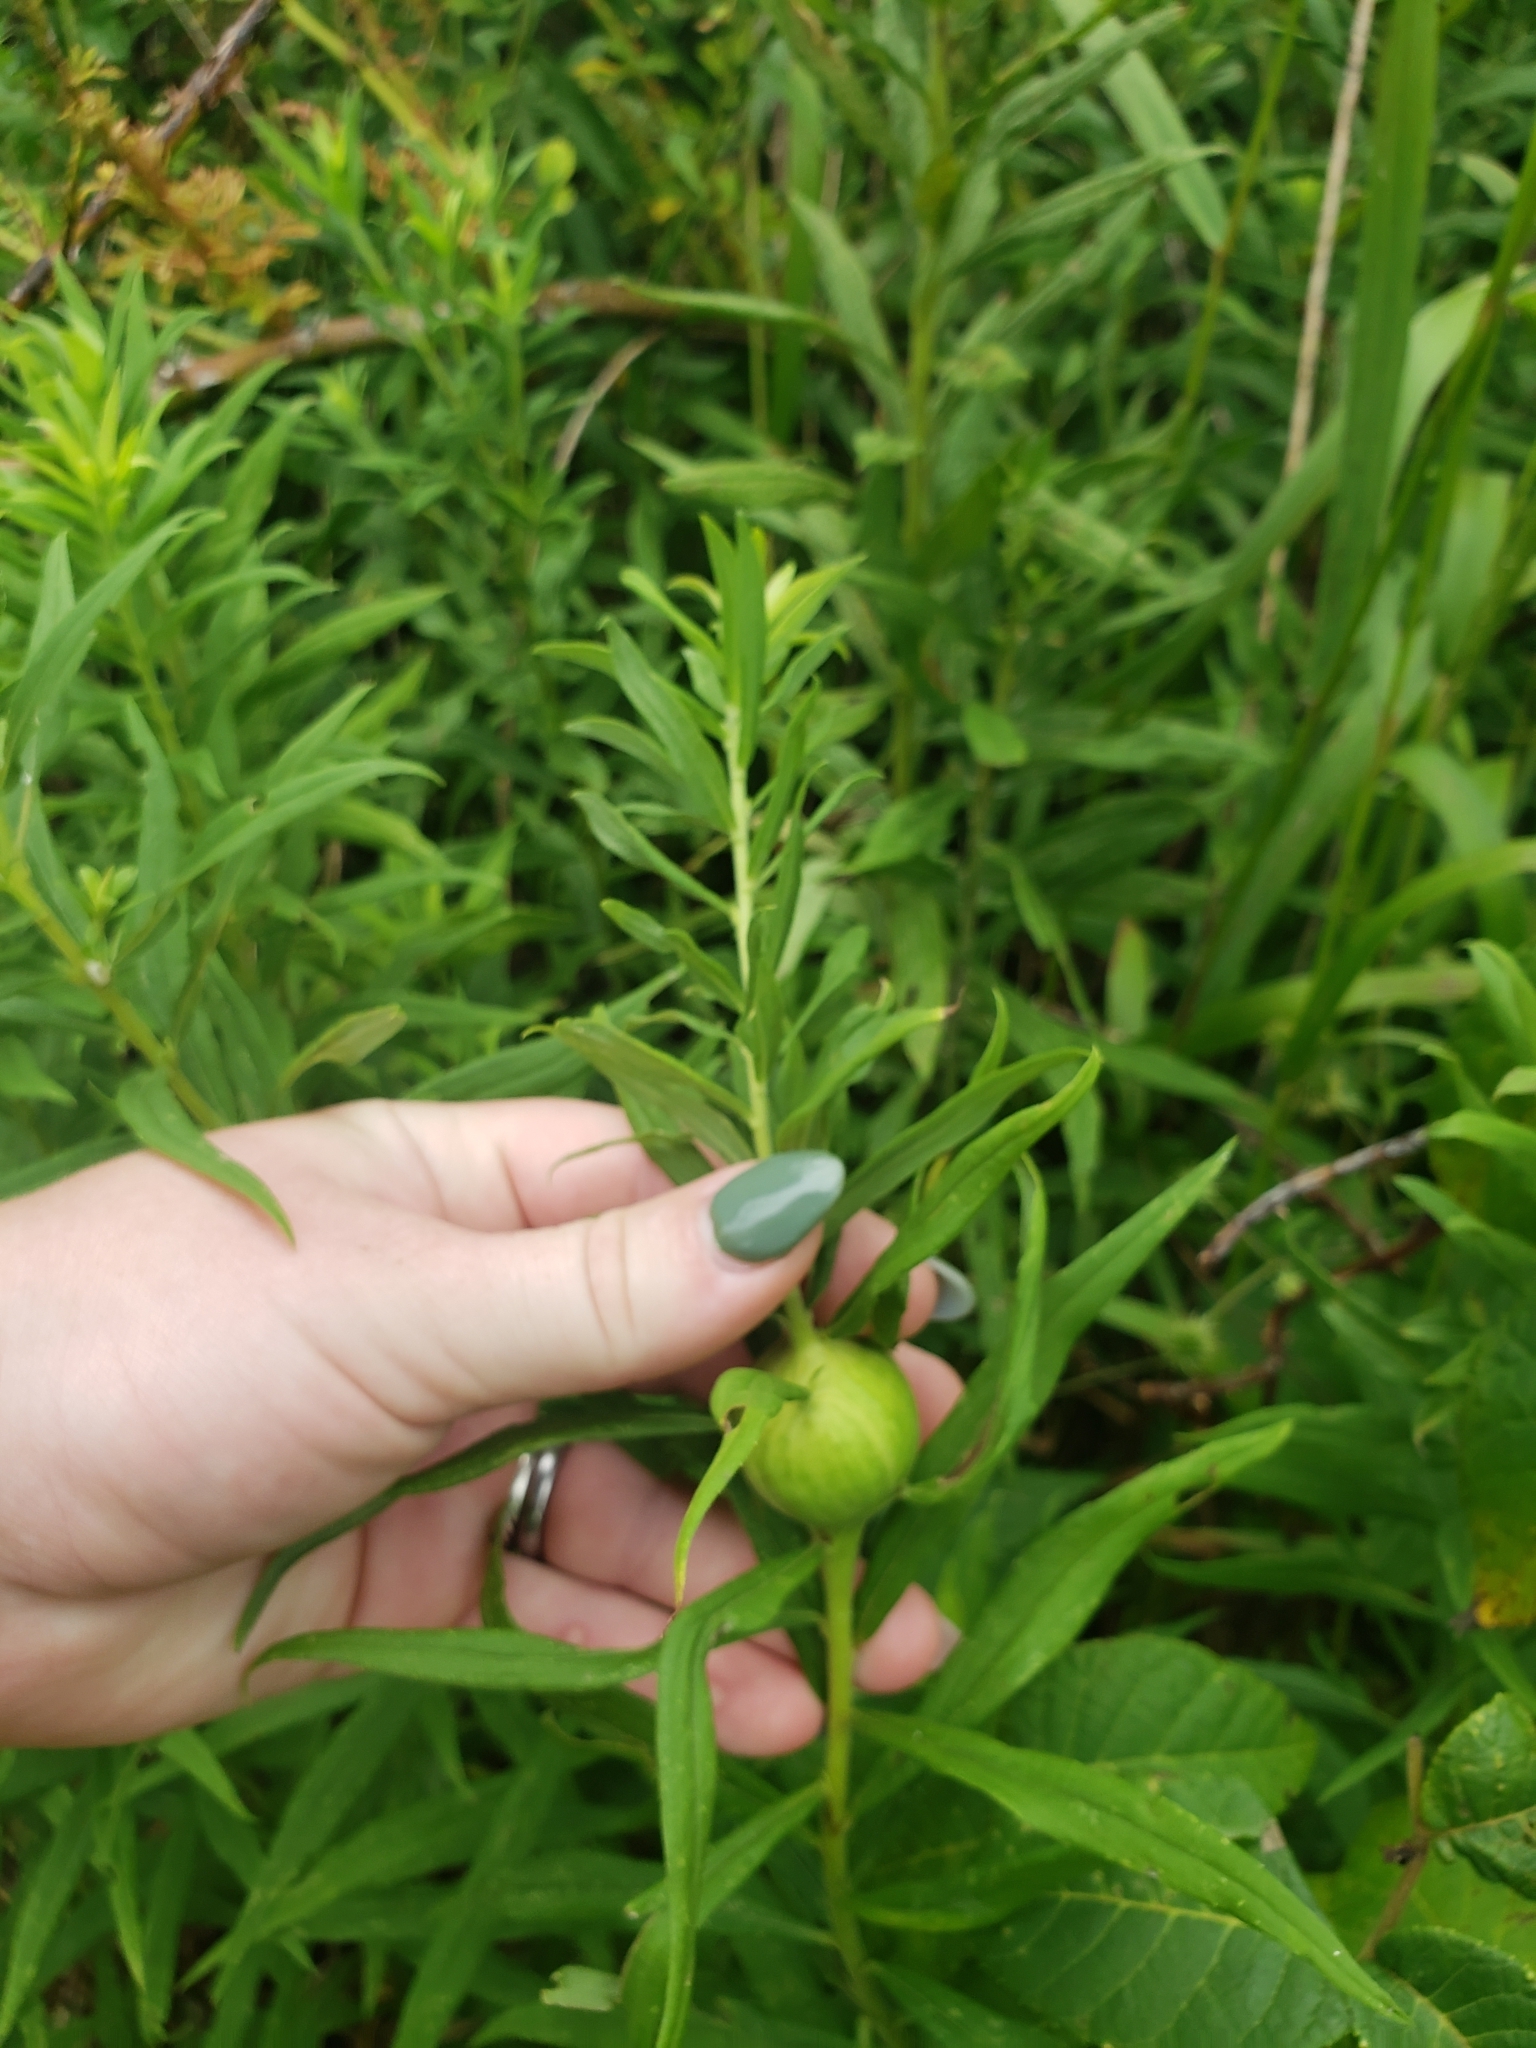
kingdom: Animalia
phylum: Arthropoda
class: Insecta
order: Diptera
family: Tephritidae
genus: Eurosta
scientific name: Eurosta solidaginis
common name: Goldenrod gall fly
